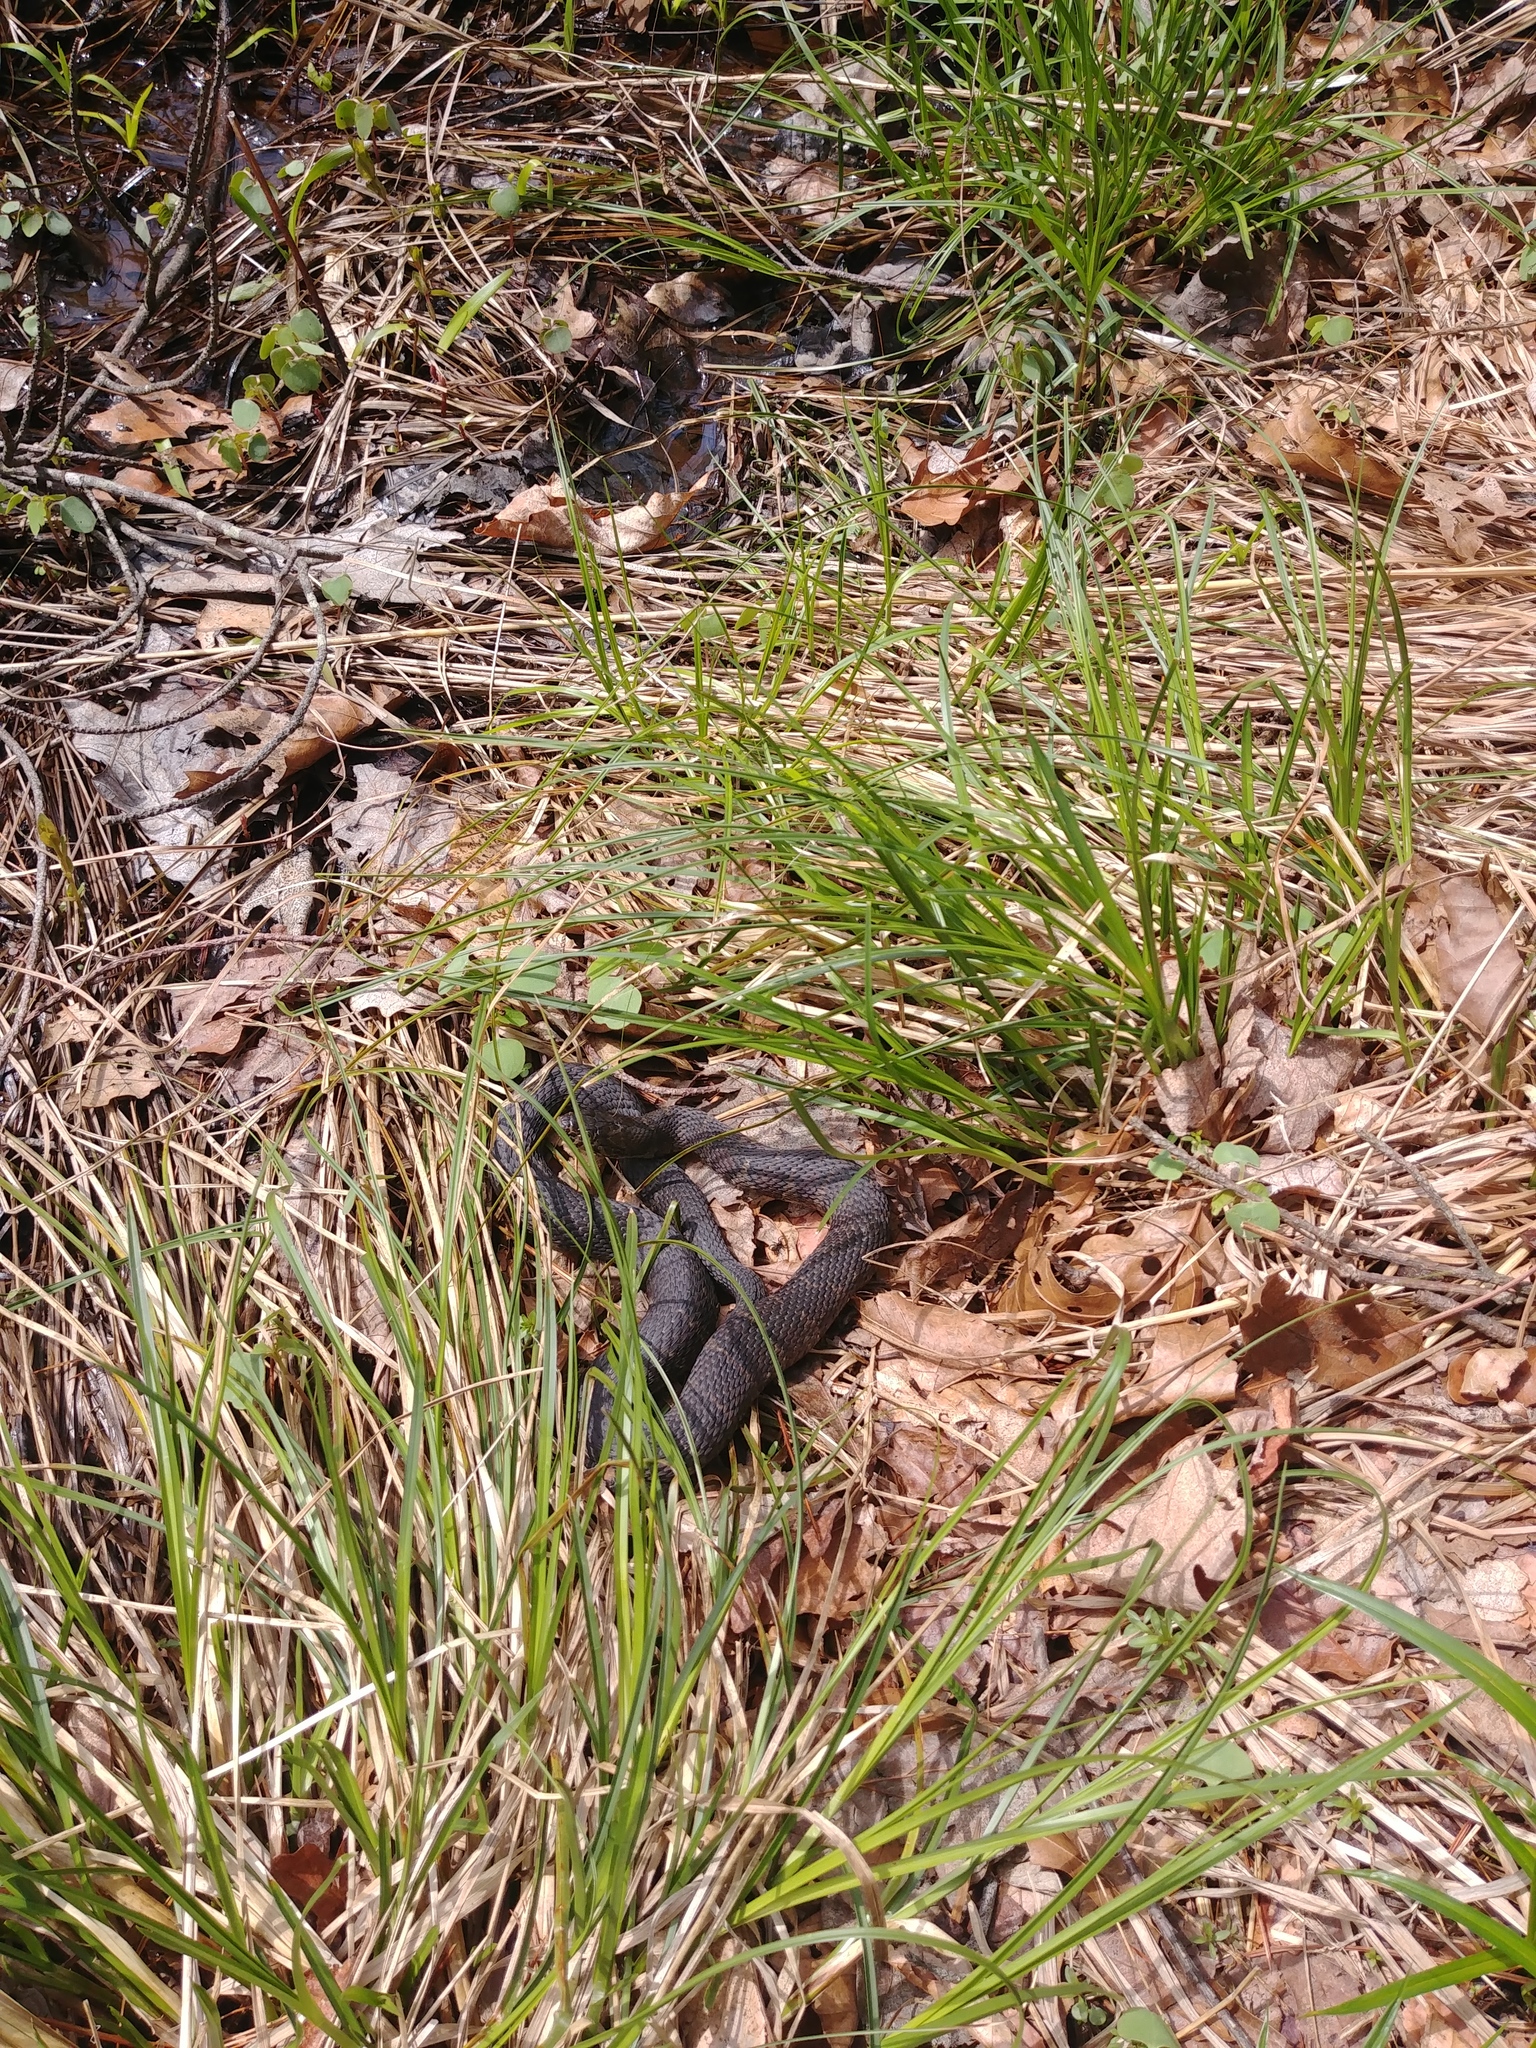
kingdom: Animalia
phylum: Chordata
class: Squamata
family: Colubridae
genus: Nerodia
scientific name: Nerodia sipedon
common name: Northern water snake
